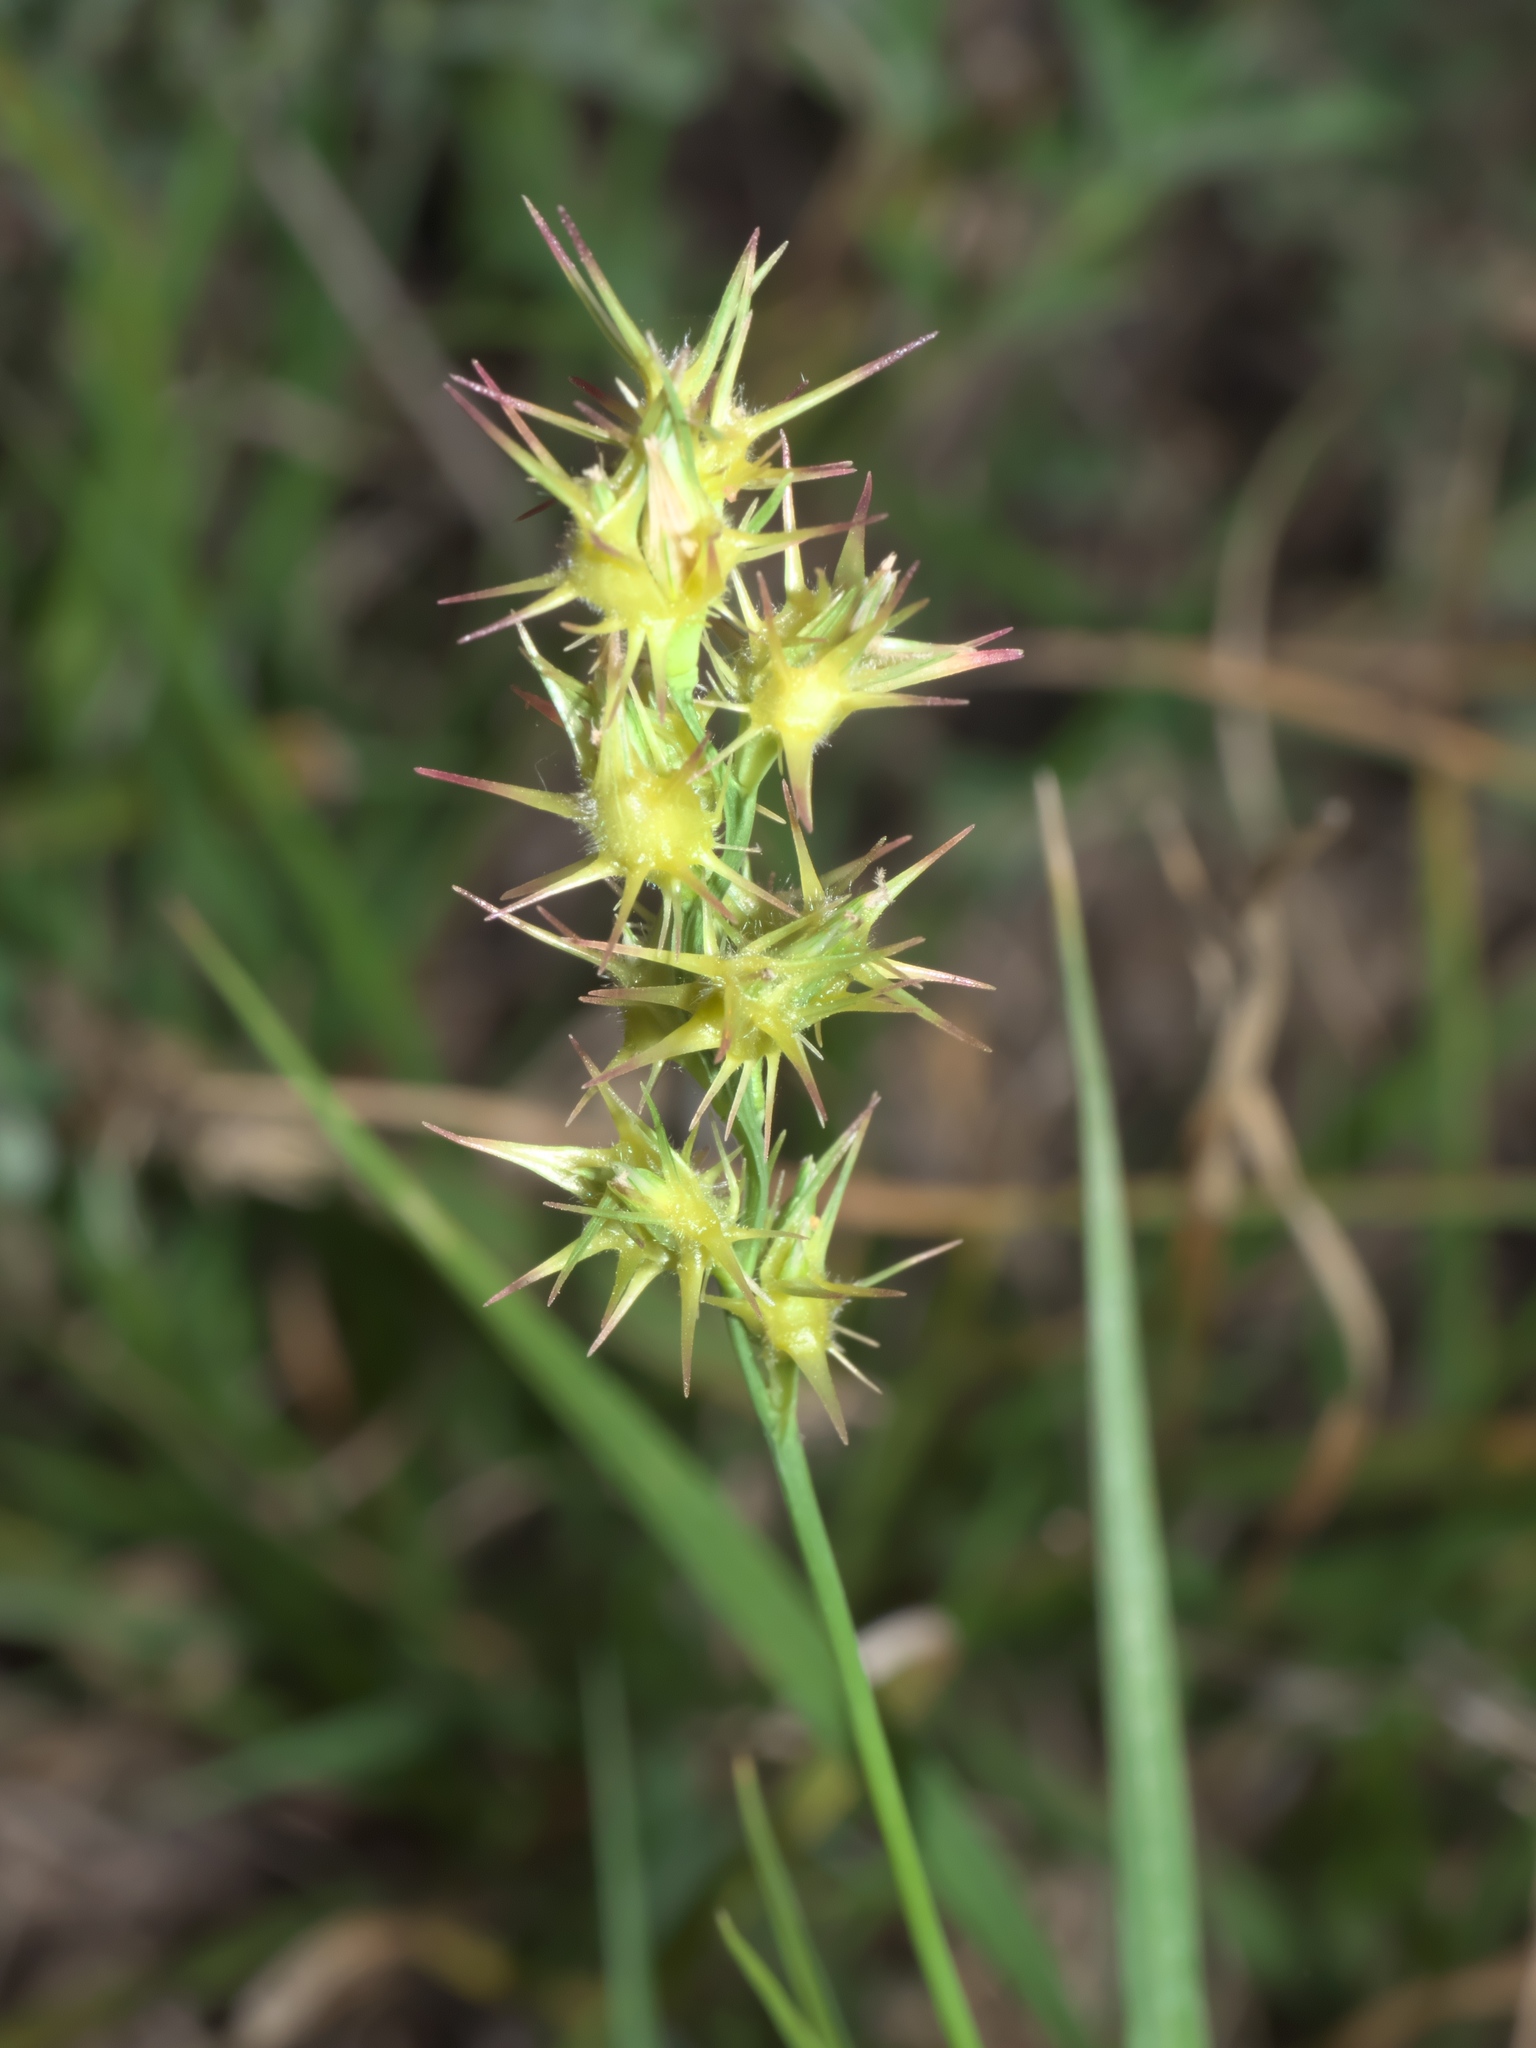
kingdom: Plantae
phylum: Tracheophyta
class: Liliopsida
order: Poales
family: Poaceae
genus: Cenchrus
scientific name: Cenchrus longispinus
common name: Mat sandbur
